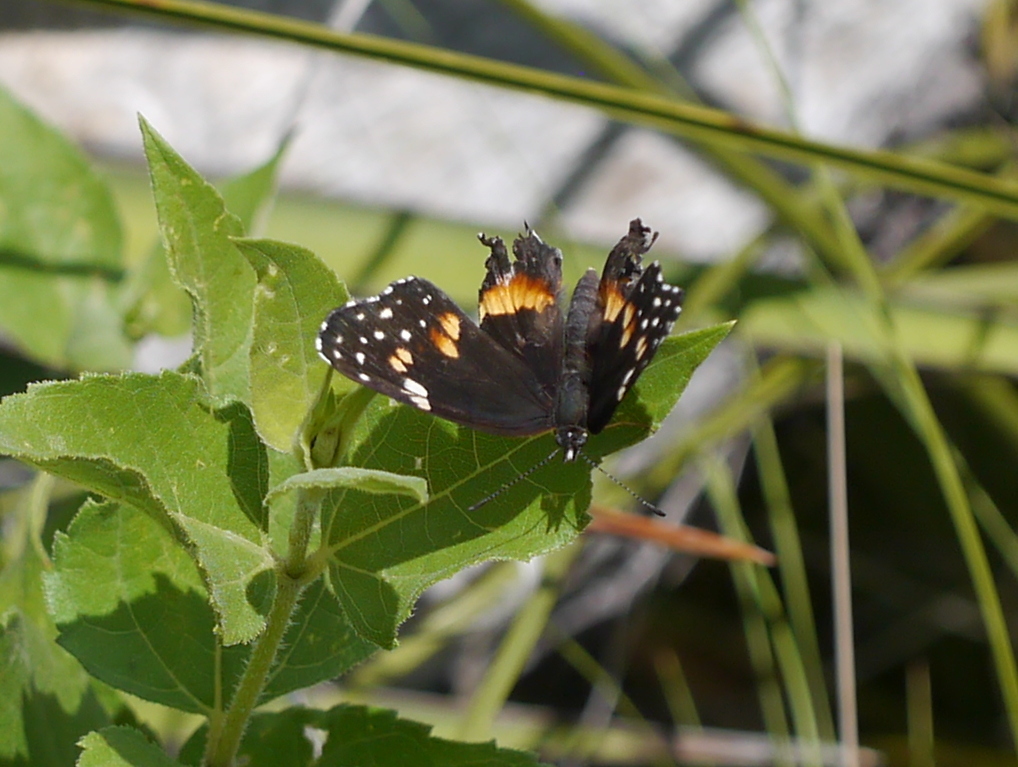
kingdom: Animalia
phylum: Arthropoda
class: Insecta
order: Lepidoptera
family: Nymphalidae
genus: Chlosyne
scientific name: Chlosyne lacinia
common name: Bordered patch
